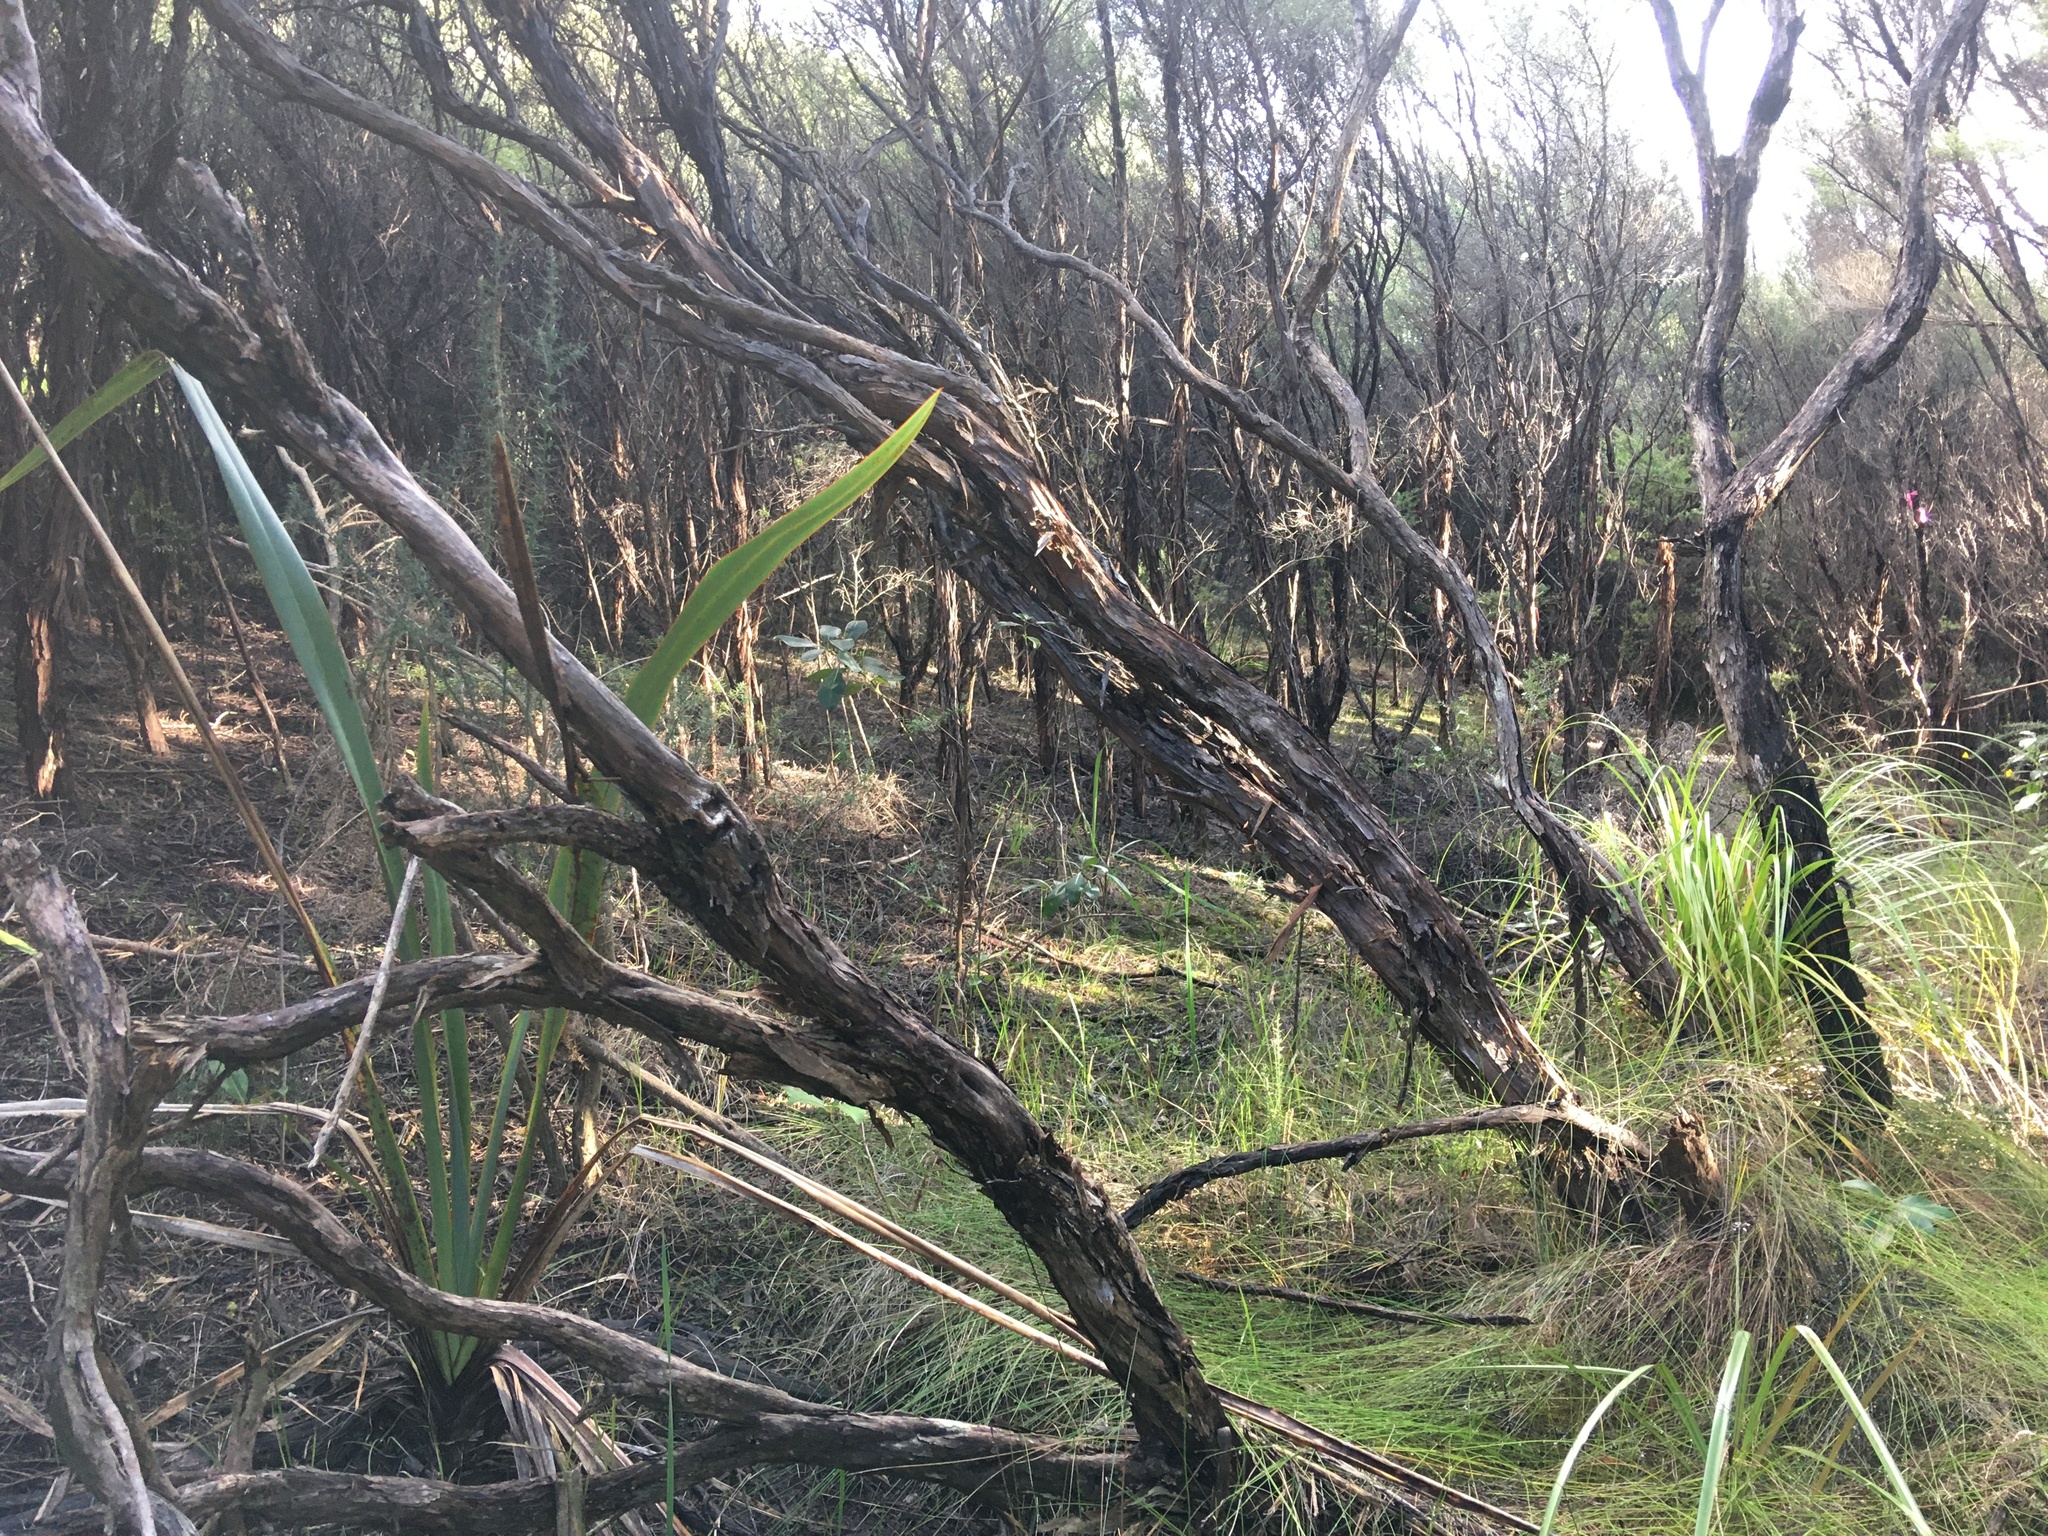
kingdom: Plantae
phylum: Tracheophyta
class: Liliopsida
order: Asparagales
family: Asphodelaceae
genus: Phormium
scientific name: Phormium tenax
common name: New zealand flax
